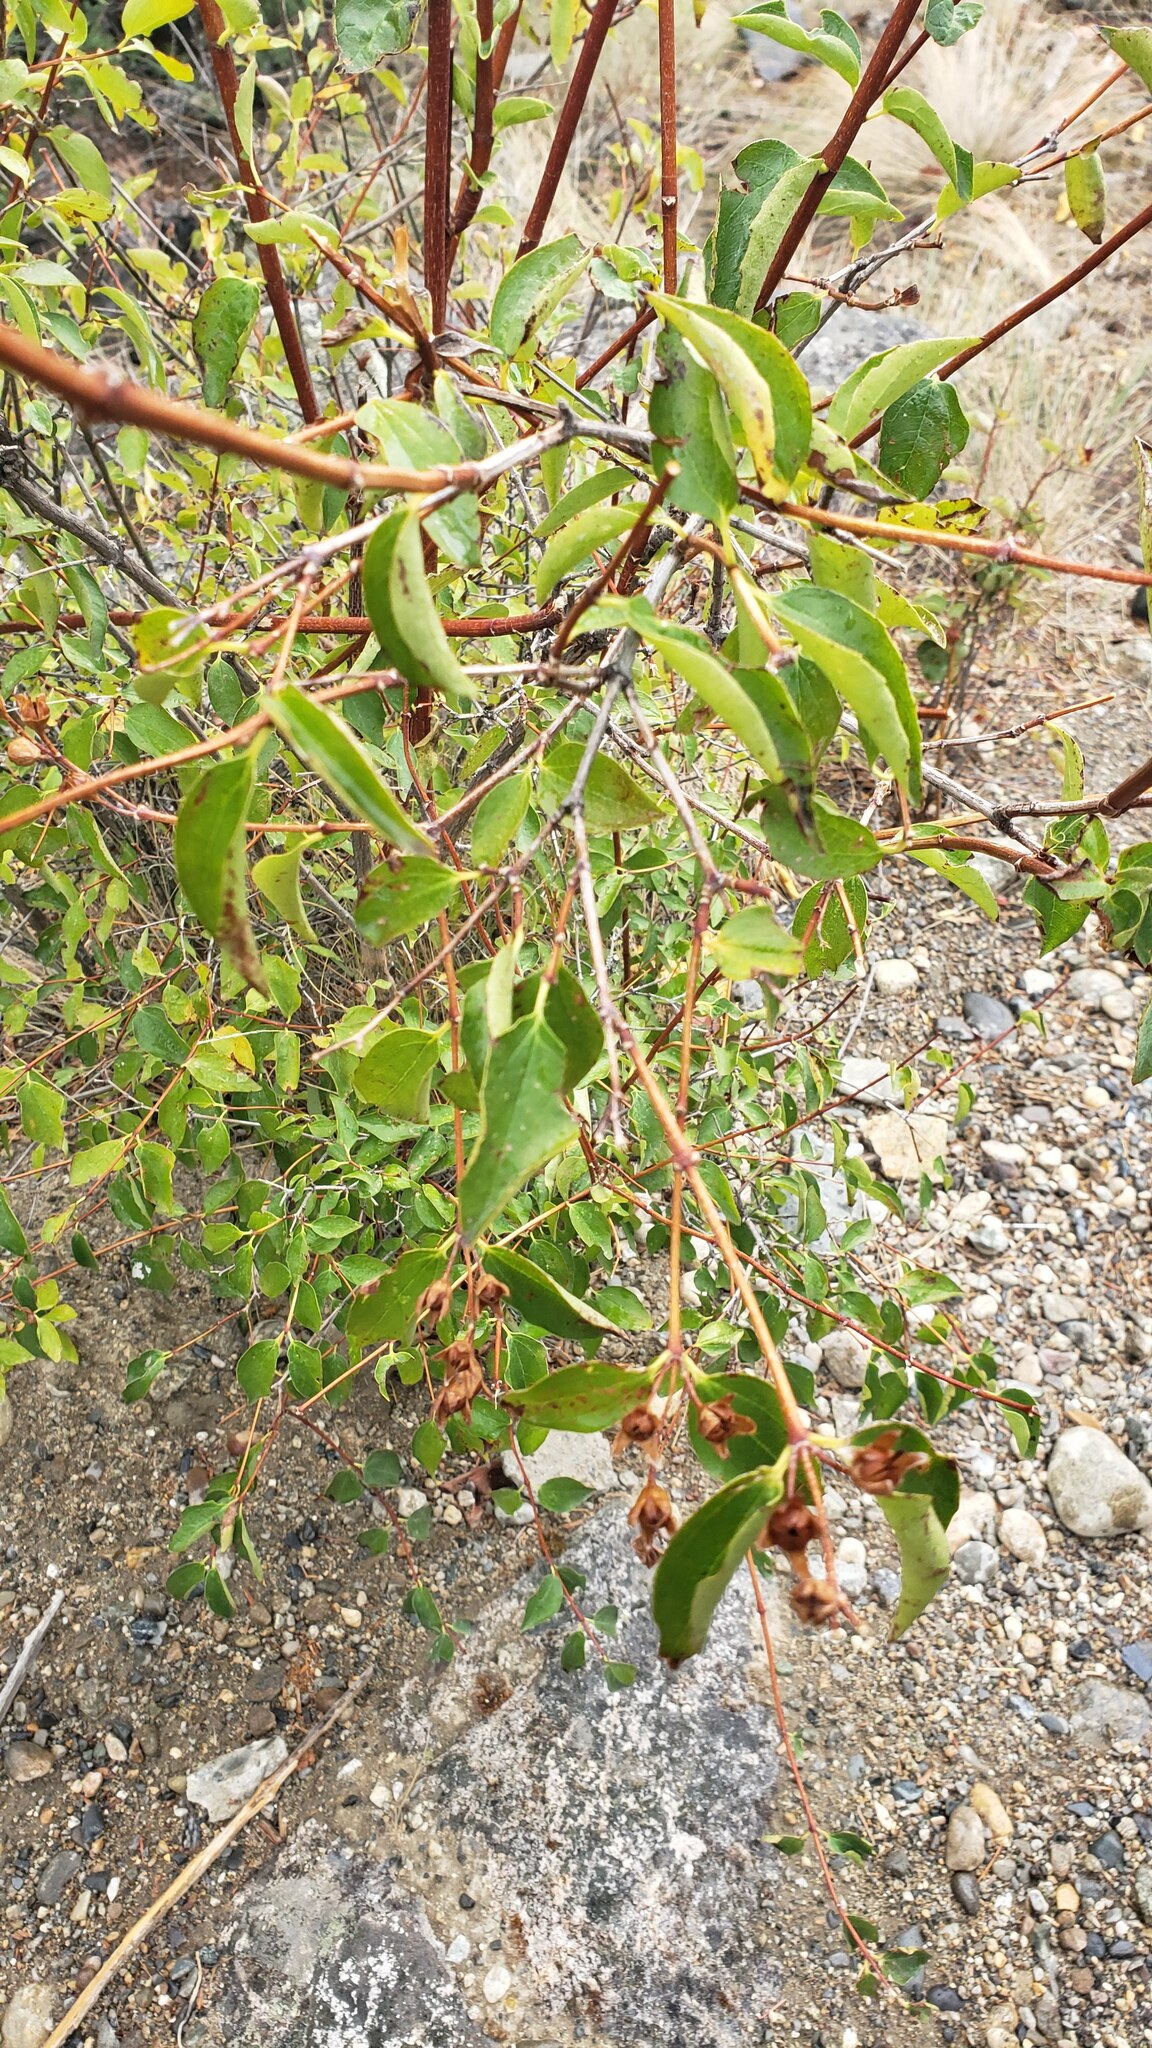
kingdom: Plantae
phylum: Tracheophyta
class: Magnoliopsida
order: Cornales
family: Hydrangeaceae
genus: Philadelphus
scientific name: Philadelphus lewisii
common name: Lewis's mock orange
